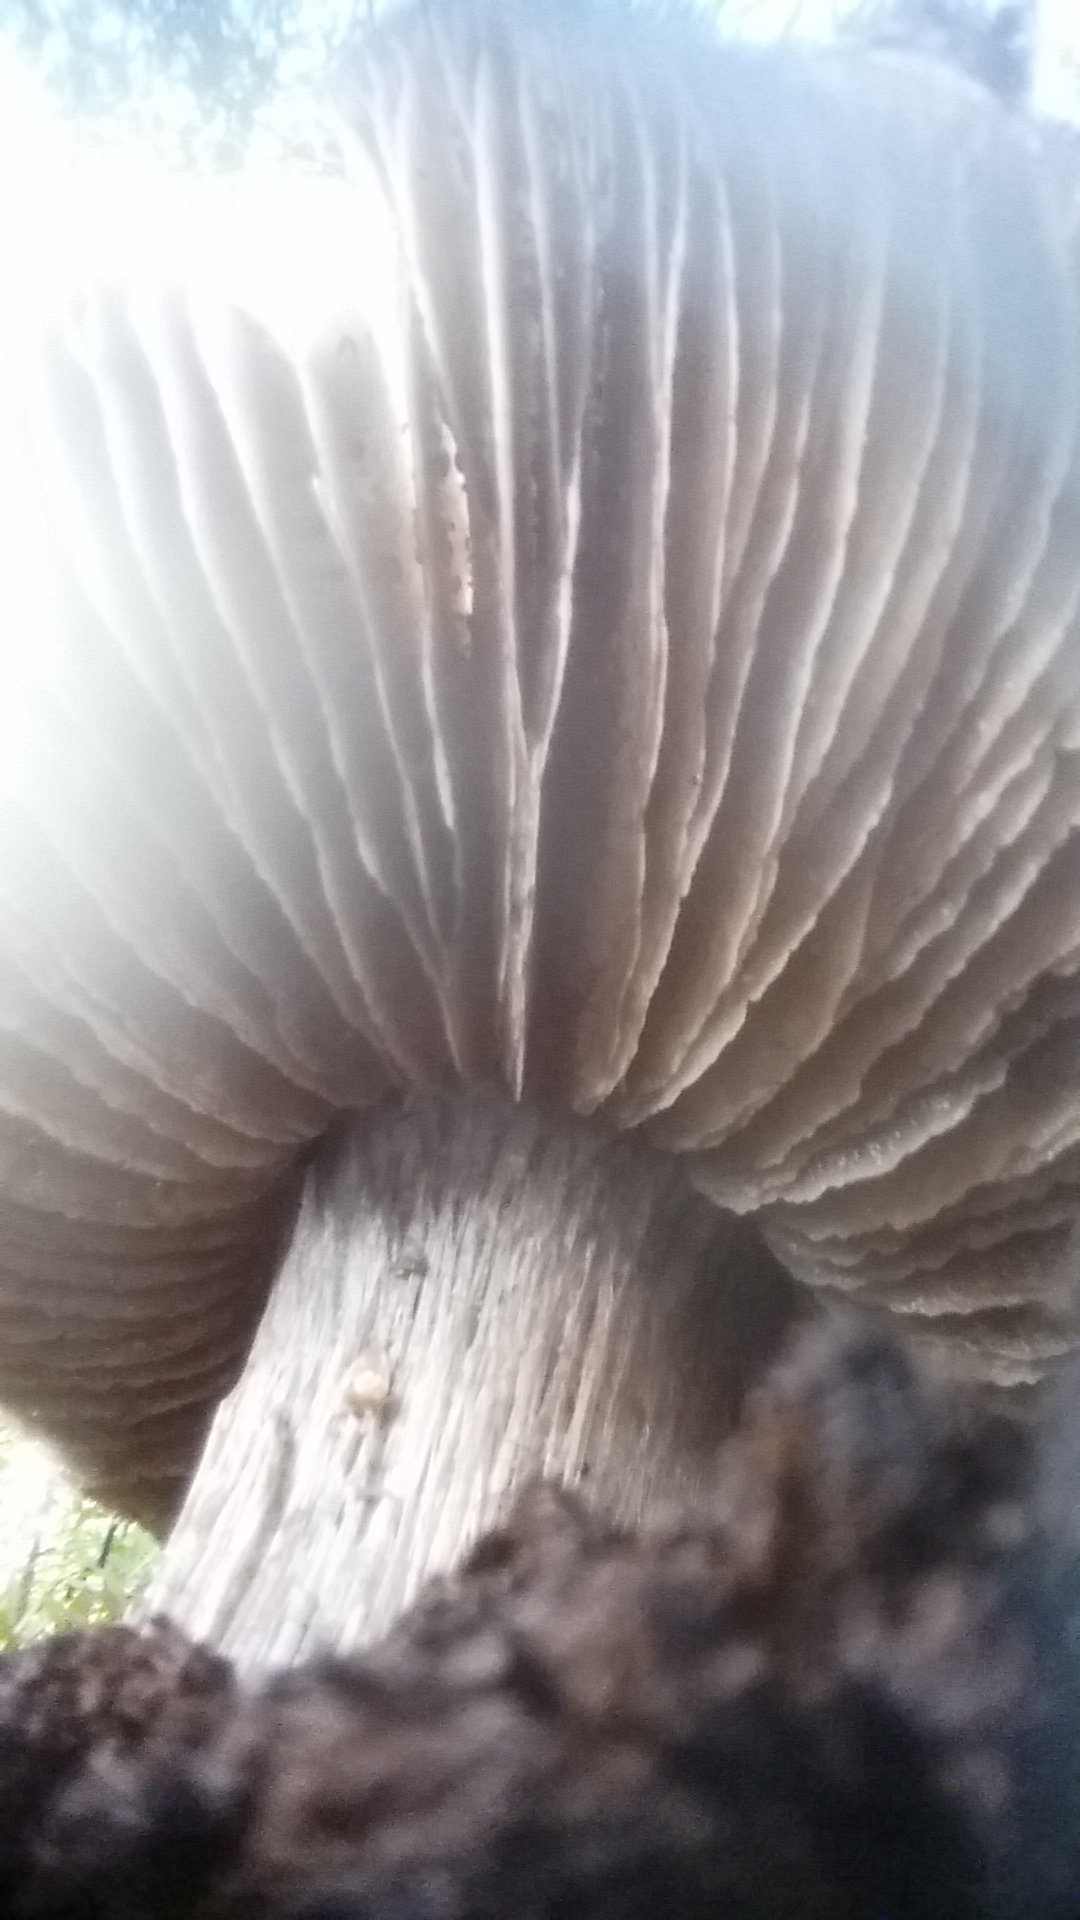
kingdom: Fungi
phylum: Basidiomycota
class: Agaricomycetes
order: Agaricales
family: Entolomataceae
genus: Entoloma
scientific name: Entoloma medianox
